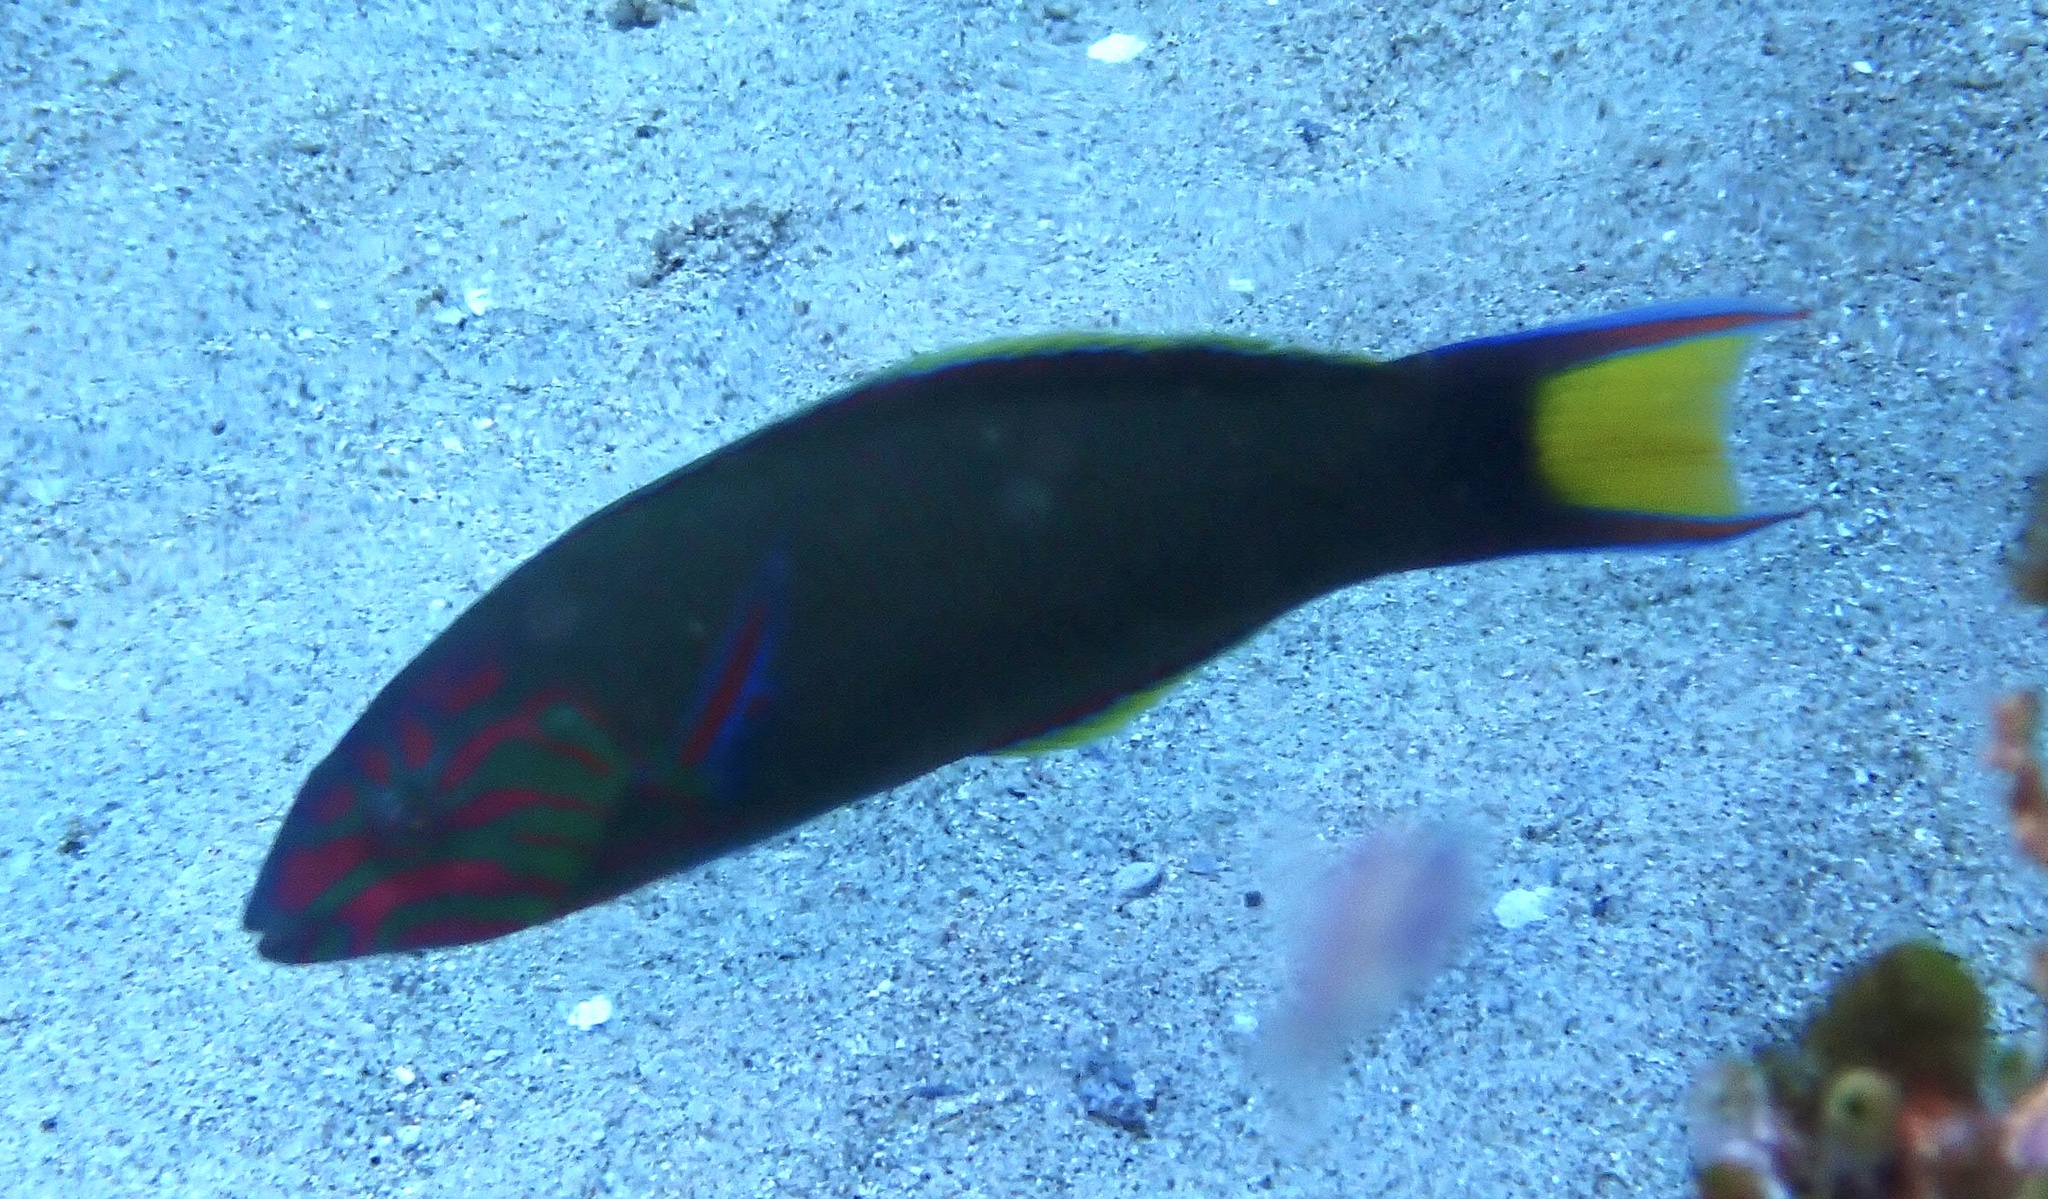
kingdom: Animalia
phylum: Chordata
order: Perciformes
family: Labridae
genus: Thalassoma
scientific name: Thalassoma lunare
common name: Blue wrasse
